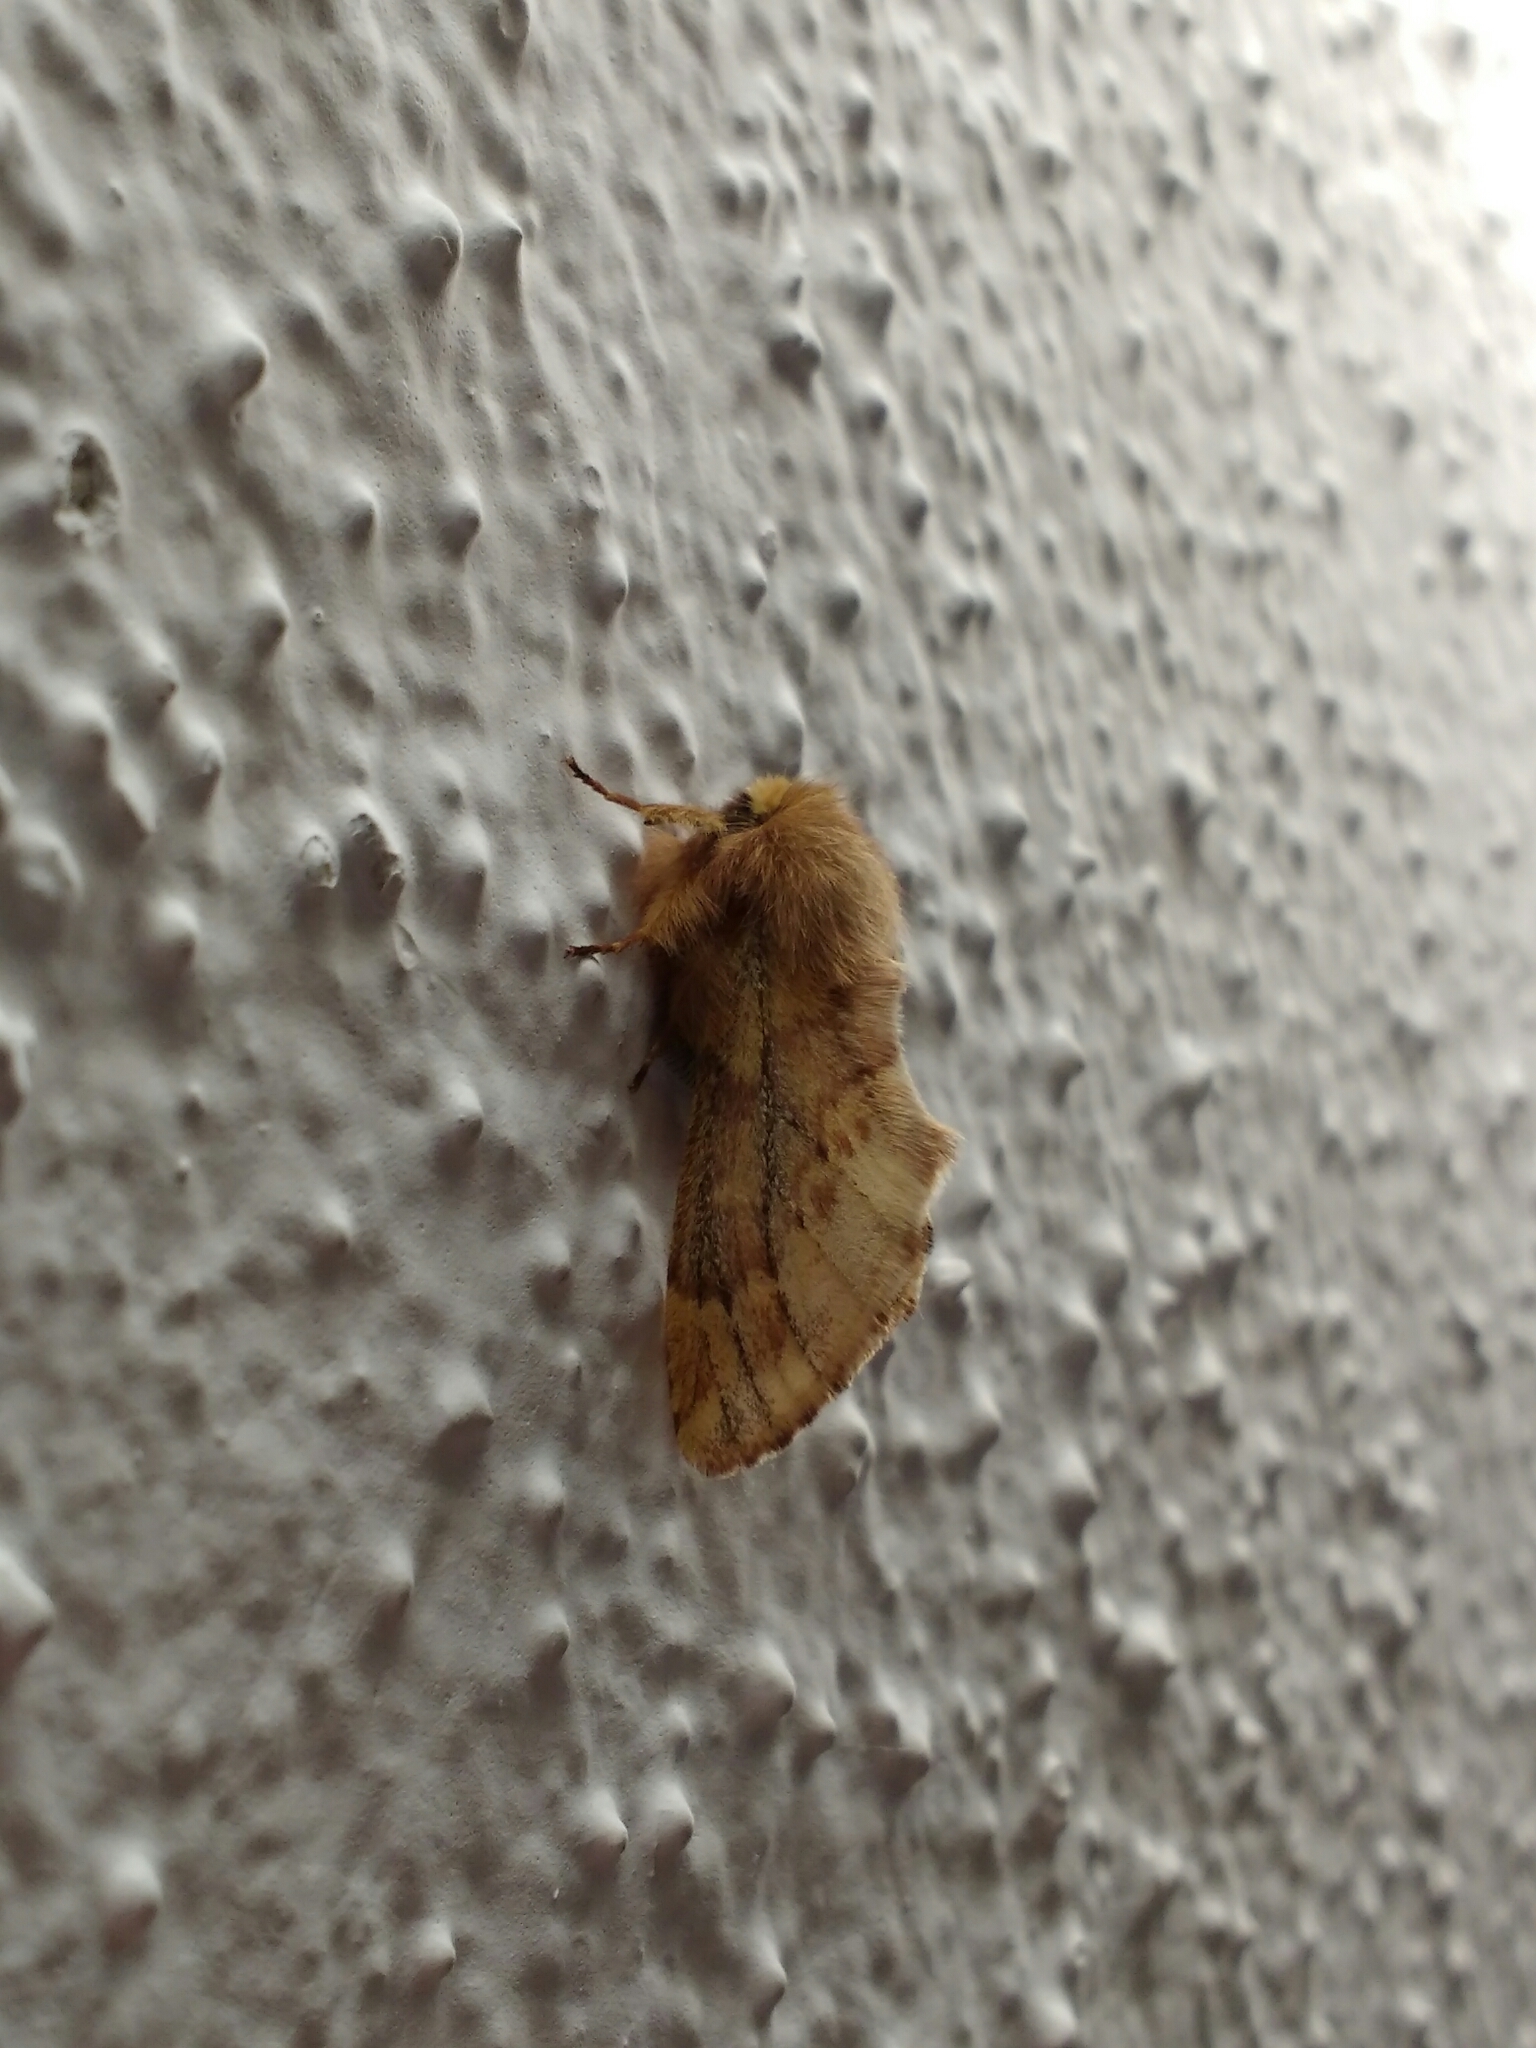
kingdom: Animalia
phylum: Arthropoda
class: Insecta
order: Lepidoptera
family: Notodontidae
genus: Ptilophora
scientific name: Ptilophora plumigera
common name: Plumed prominent
